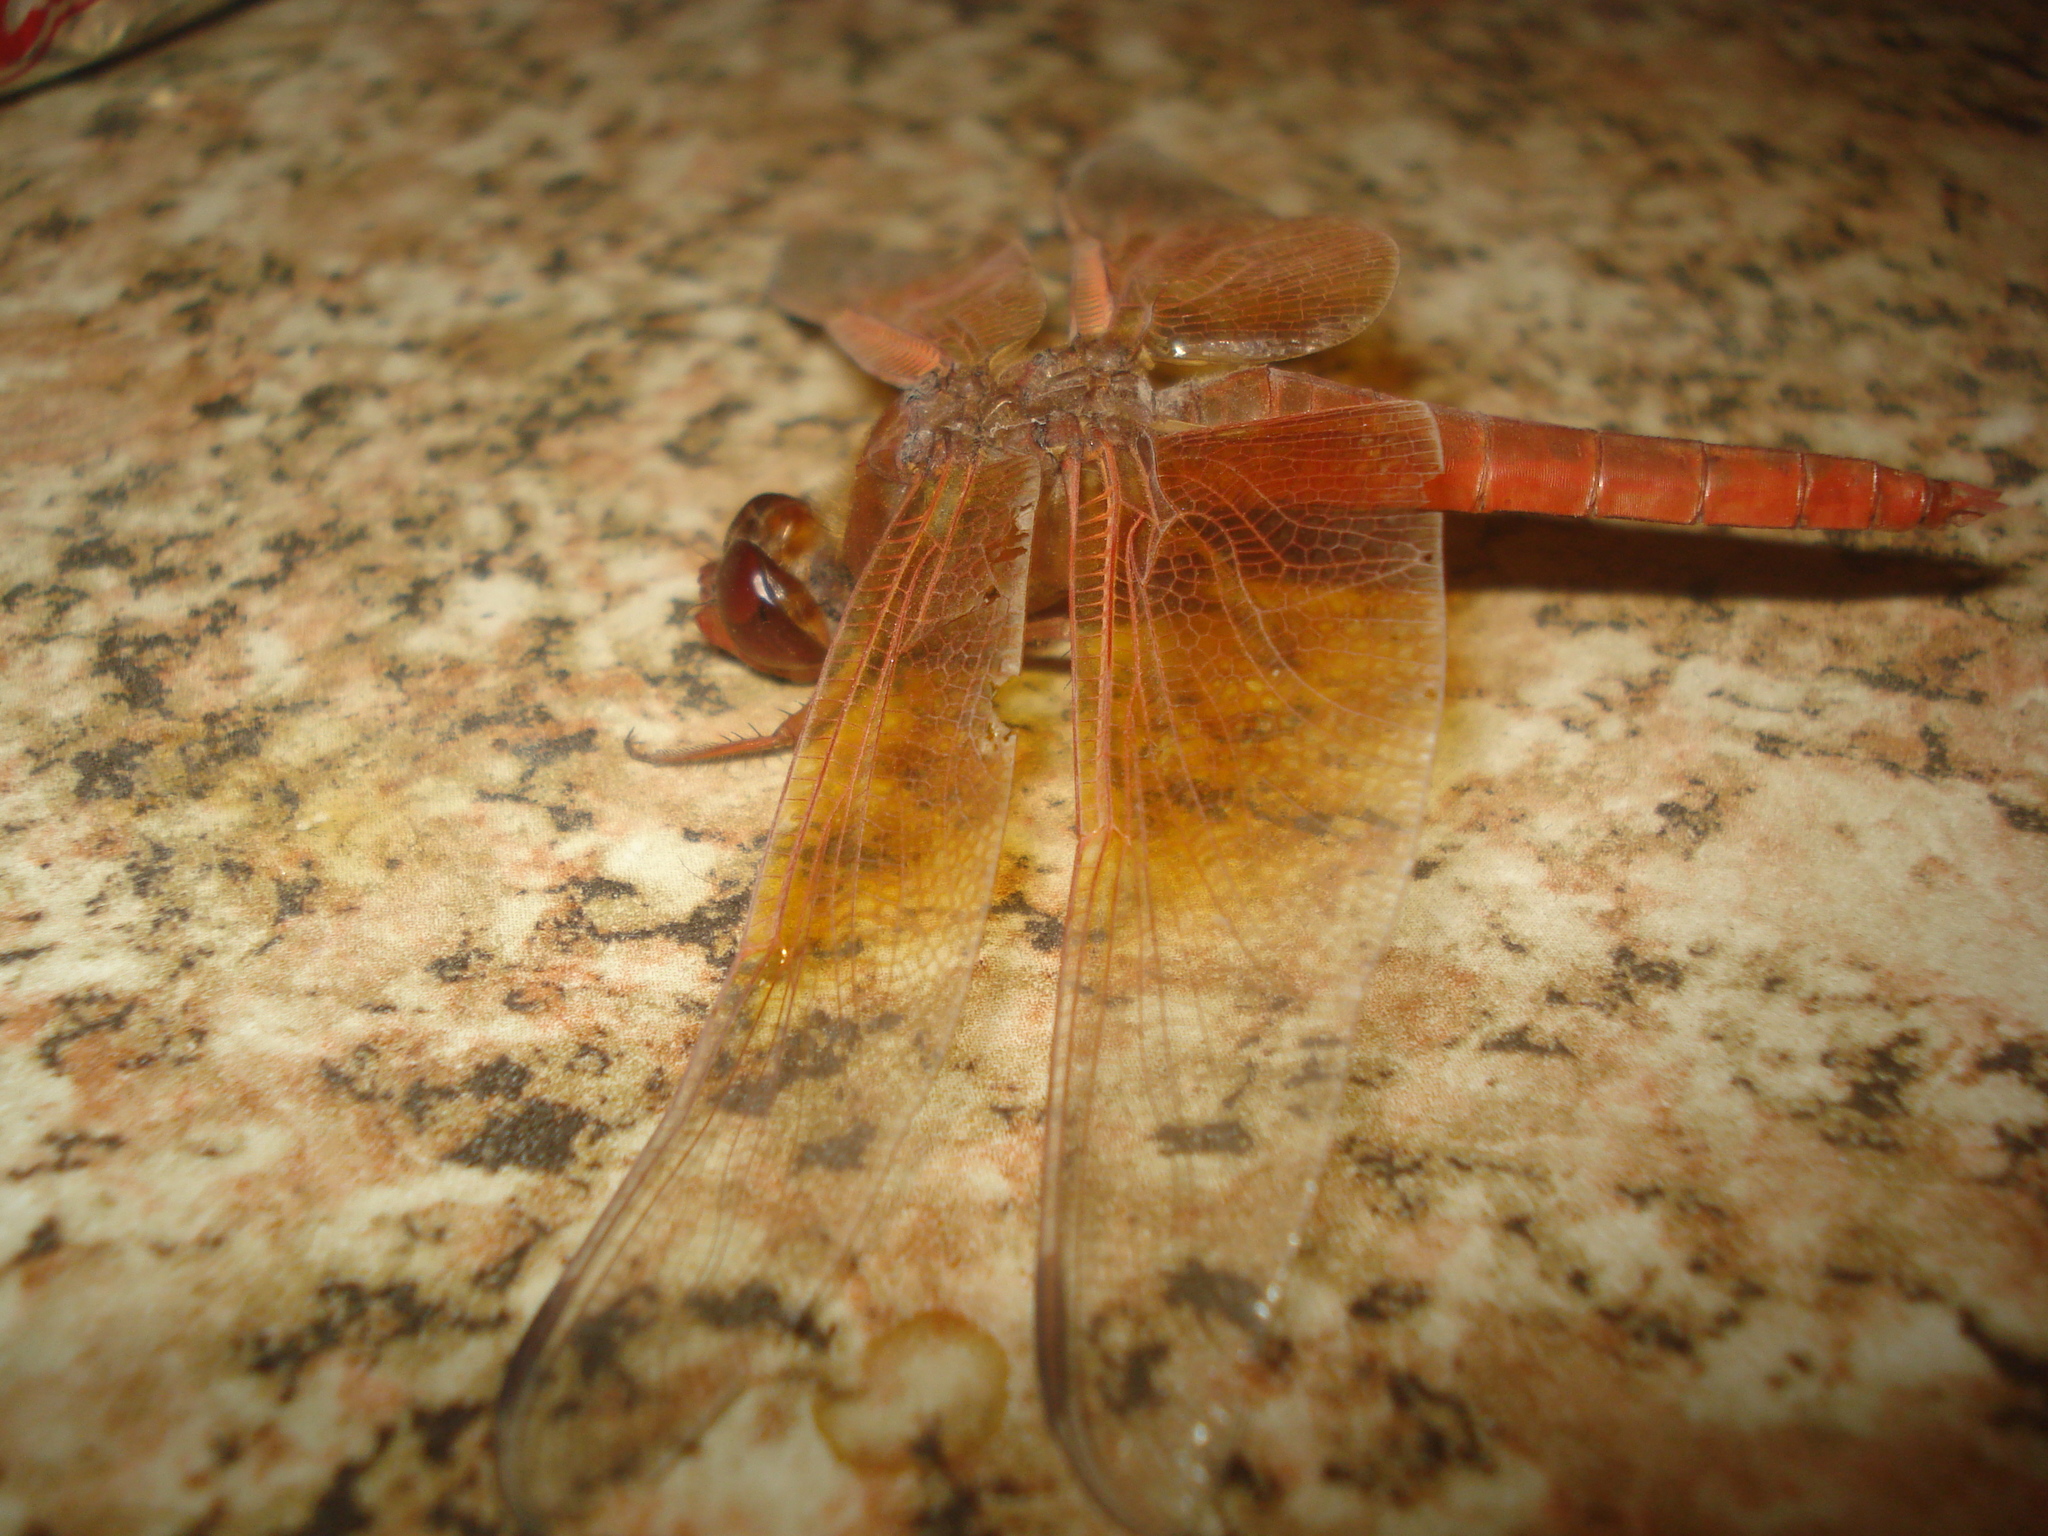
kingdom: Animalia
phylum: Arthropoda
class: Insecta
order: Odonata
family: Libellulidae
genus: Libellula
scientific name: Libellula saturata
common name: Flame skimmer
